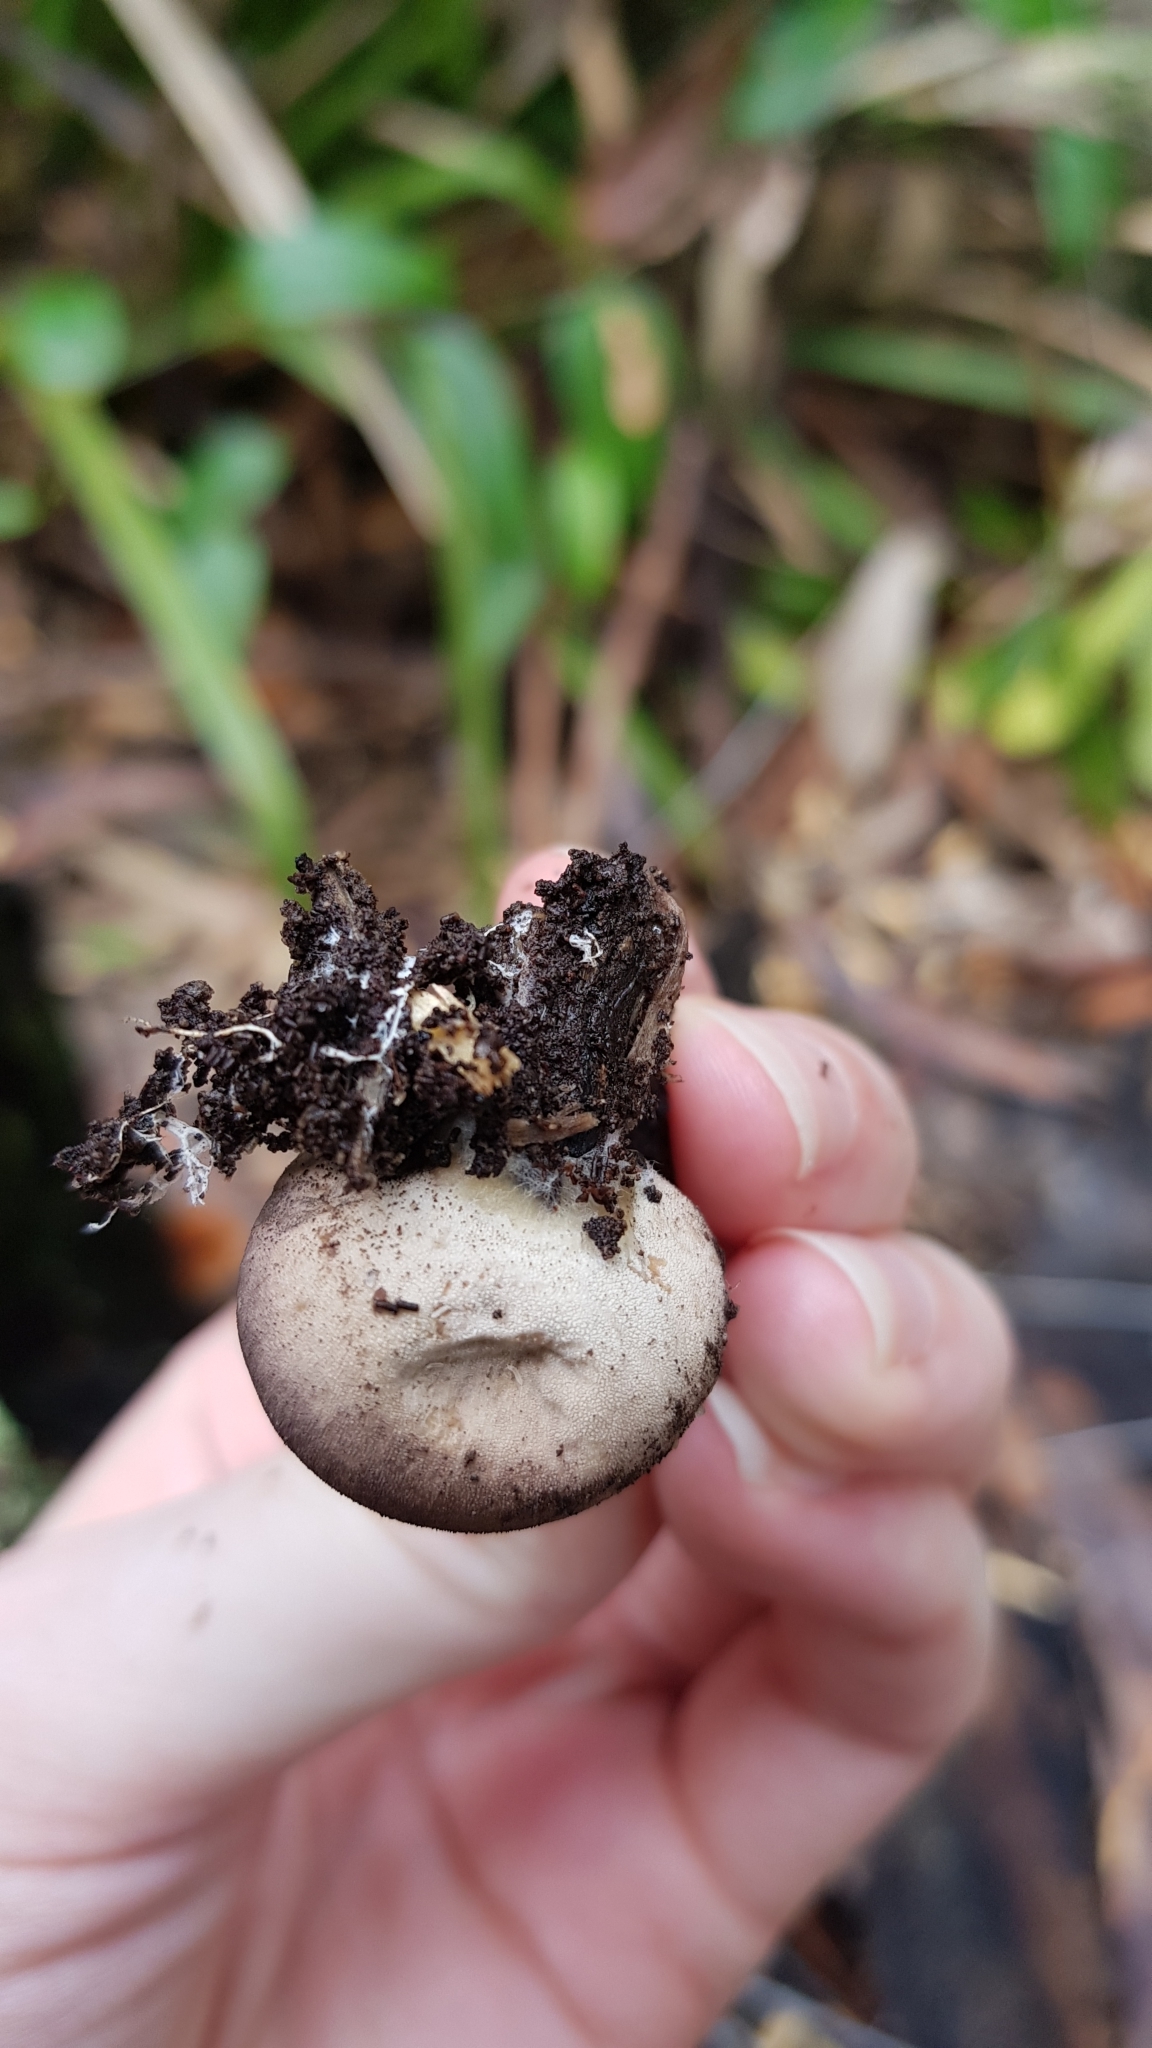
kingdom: Fungi
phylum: Basidiomycota
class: Agaricomycetes
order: Agaricales
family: Lycoperdaceae
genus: Lycoperdon
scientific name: Lycoperdon subincarnatum
